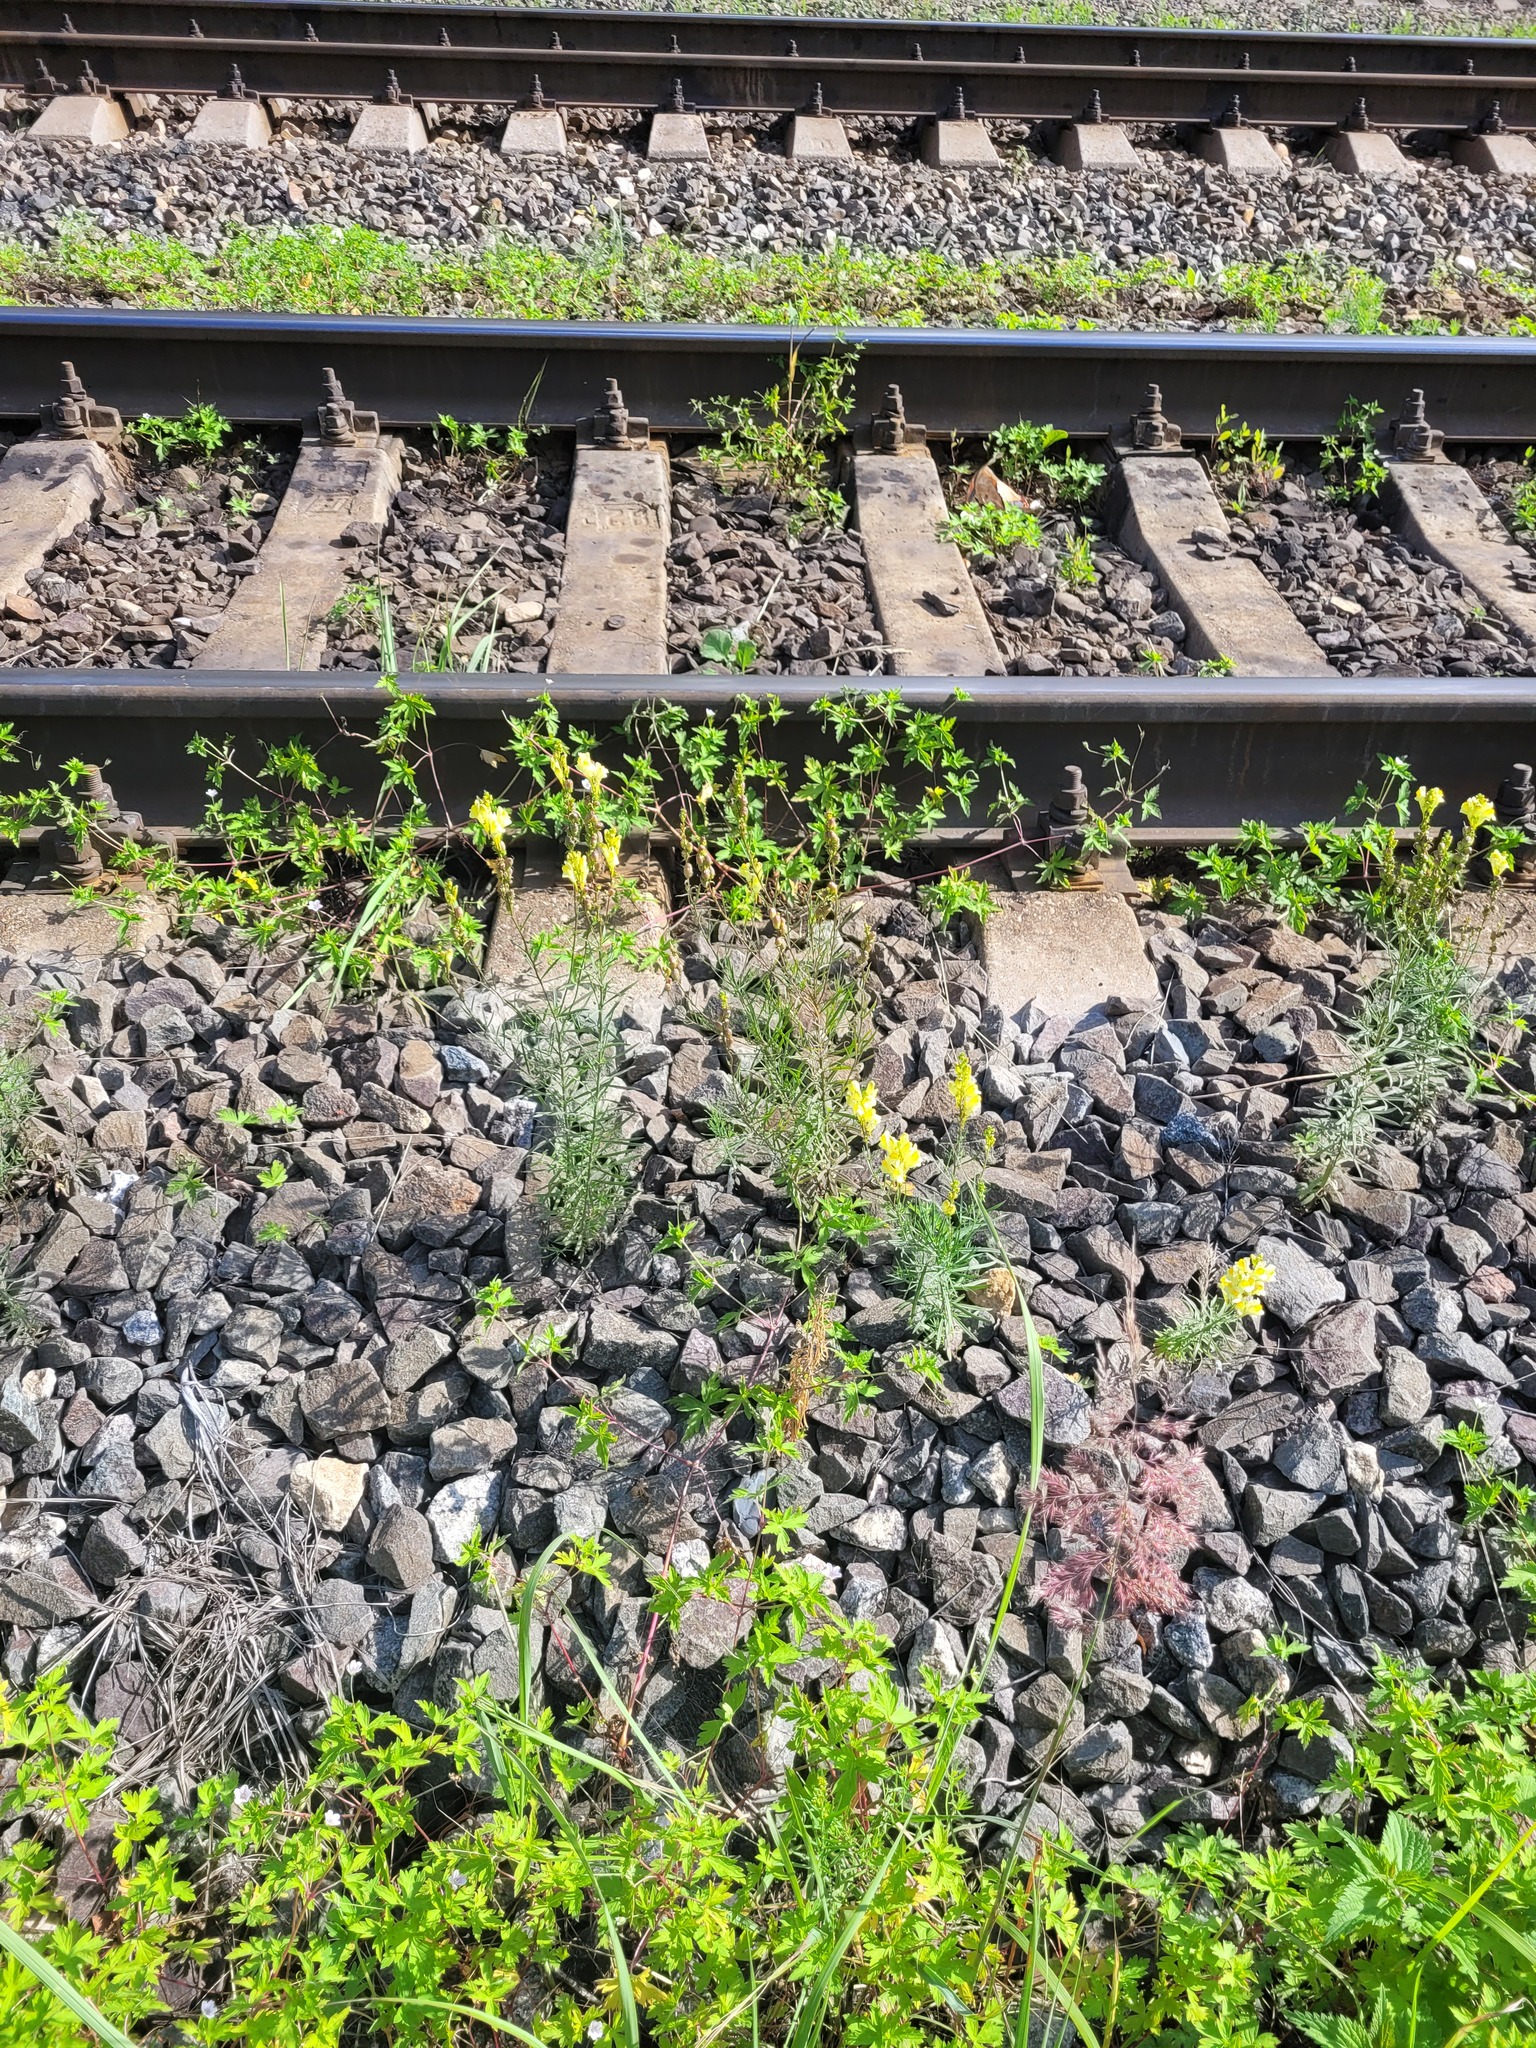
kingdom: Plantae
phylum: Tracheophyta
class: Magnoliopsida
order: Lamiales
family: Plantaginaceae
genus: Linaria
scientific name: Linaria vulgaris
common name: Butter and eggs
